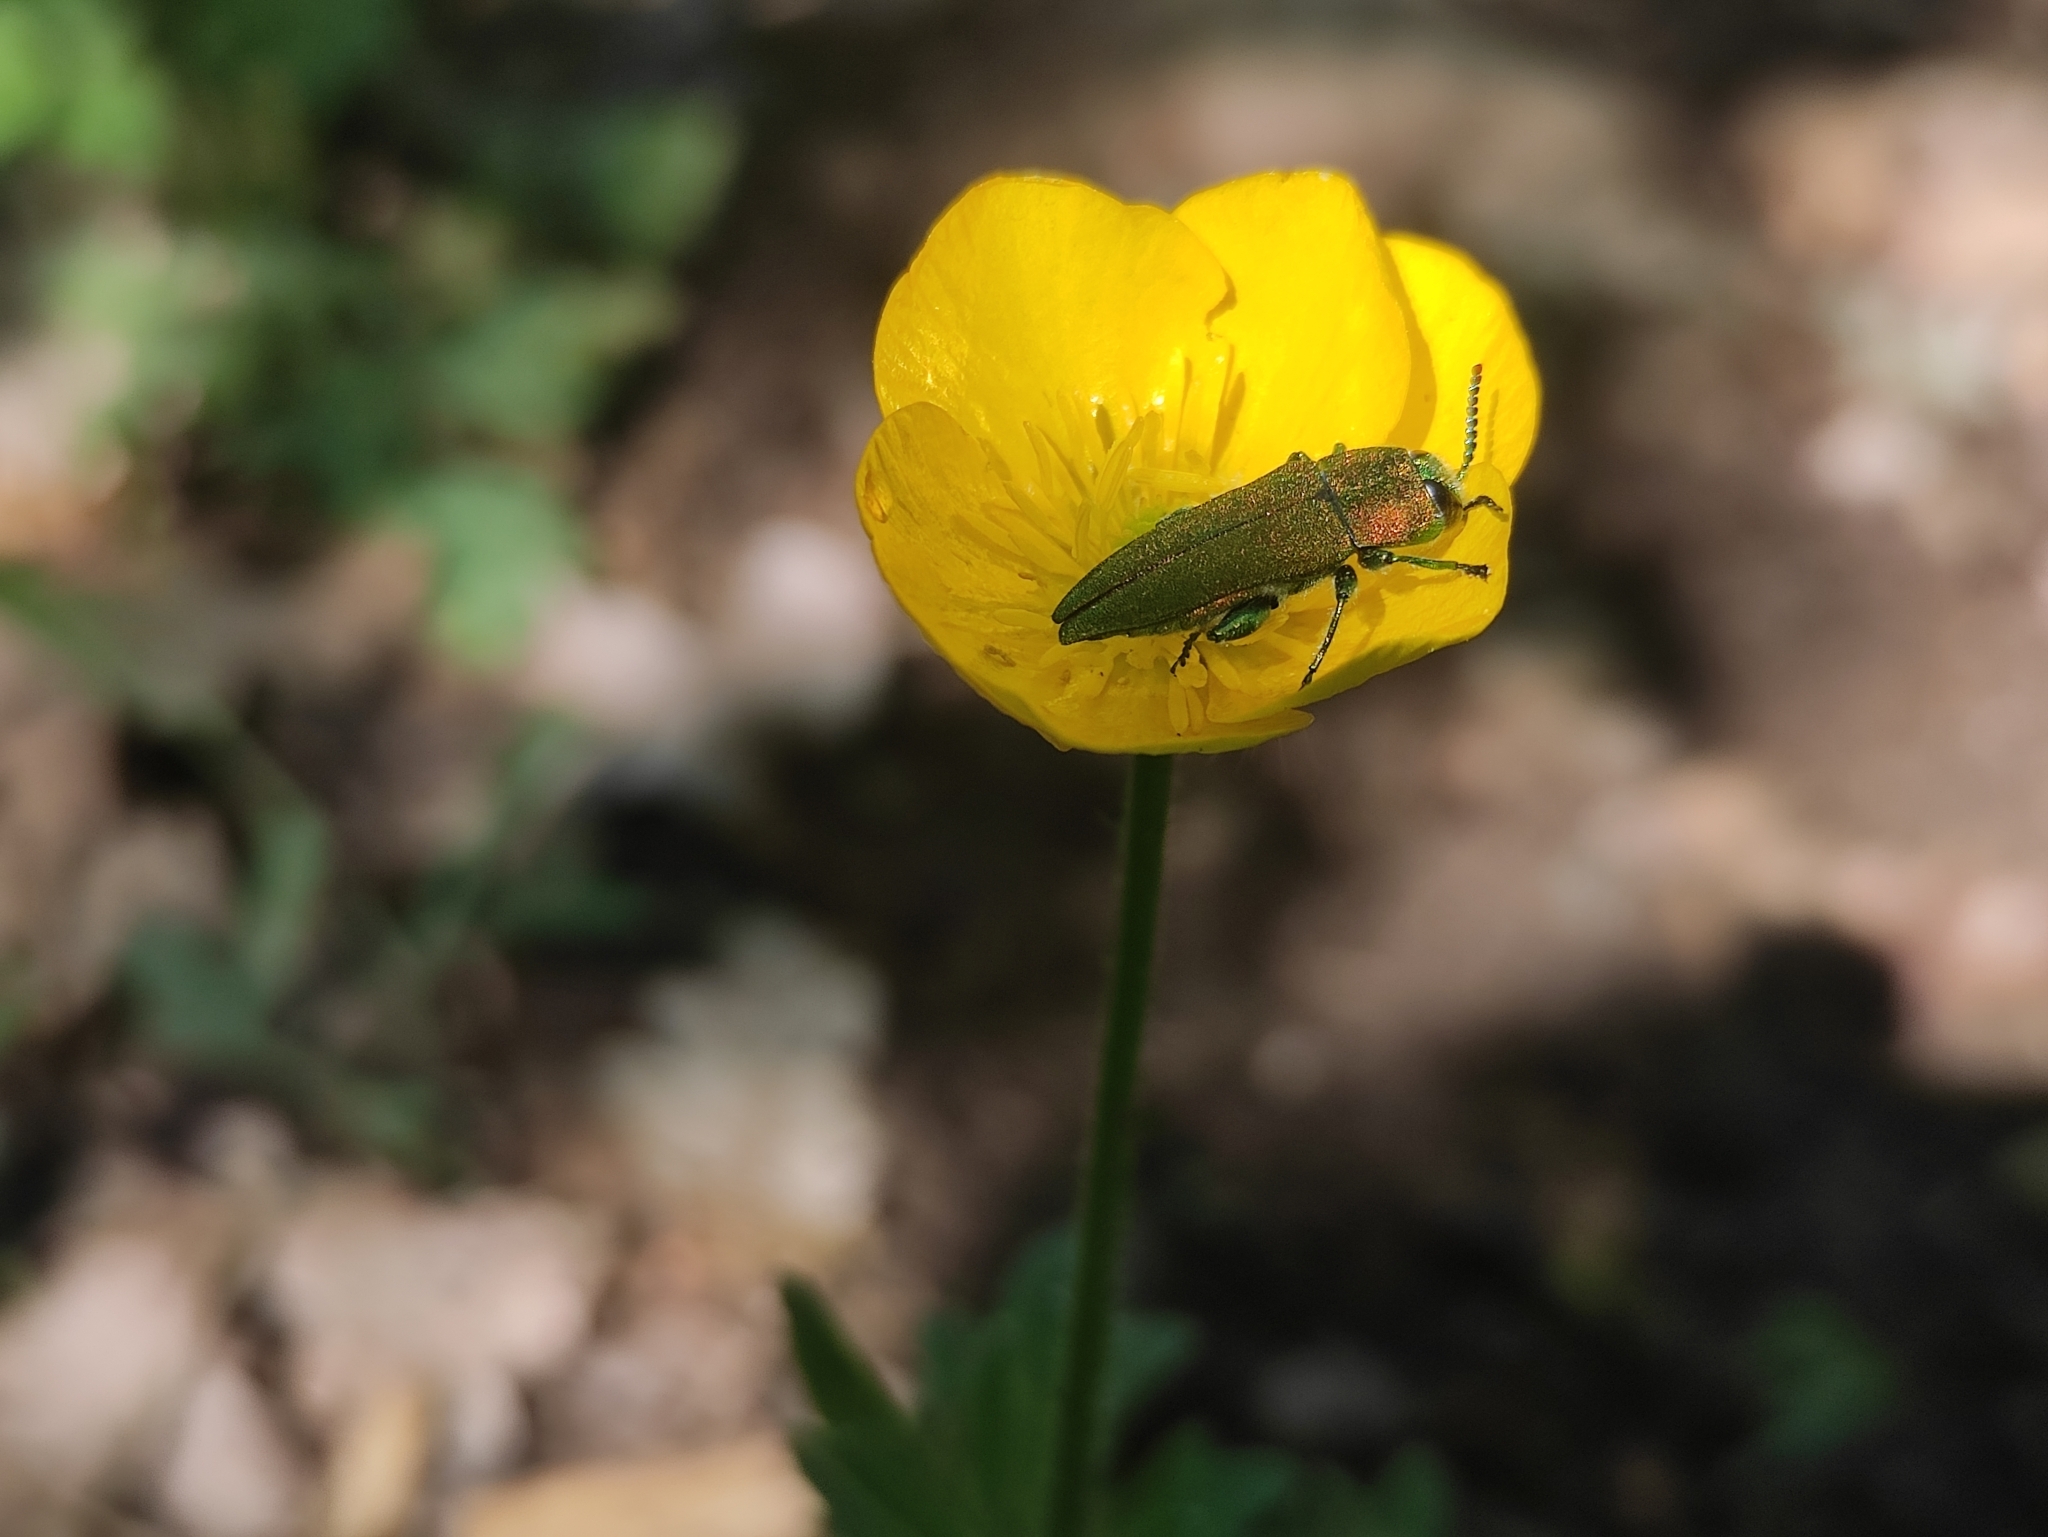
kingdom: Animalia
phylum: Arthropoda
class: Insecta
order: Coleoptera
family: Buprestidae
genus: Anthaxia
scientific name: Anthaxia hungarica
